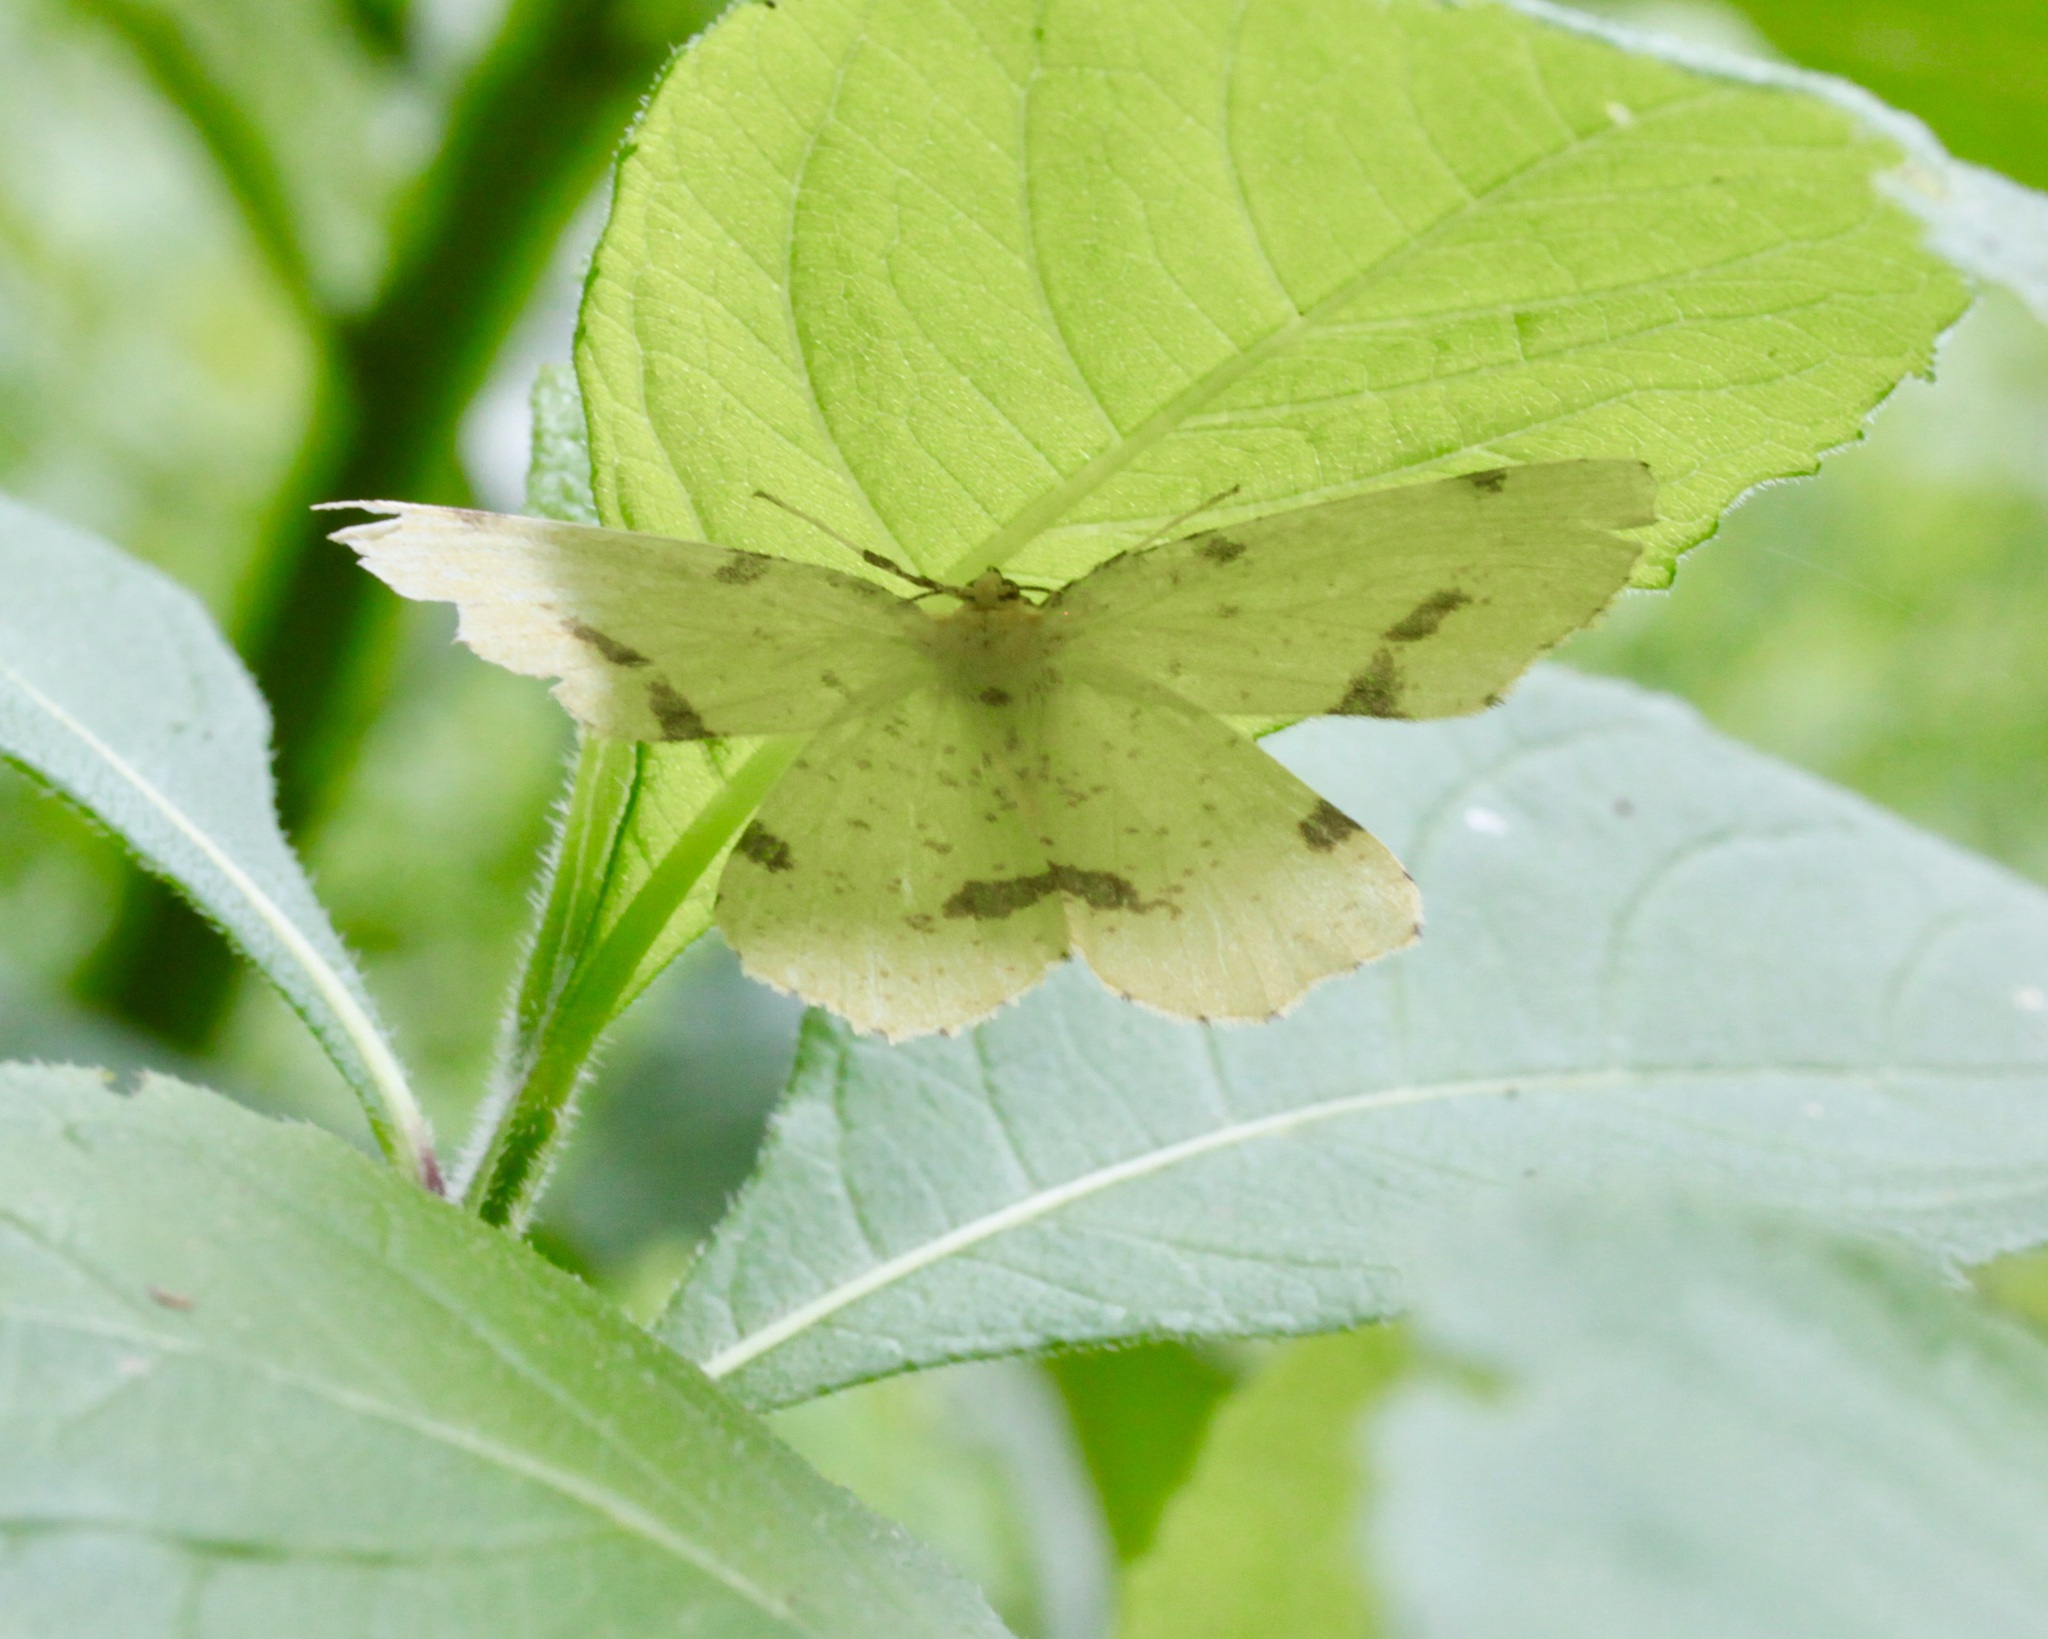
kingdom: Animalia
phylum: Arthropoda
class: Insecta
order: Lepidoptera
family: Geometridae
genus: Xanthotype
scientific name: Xanthotype
